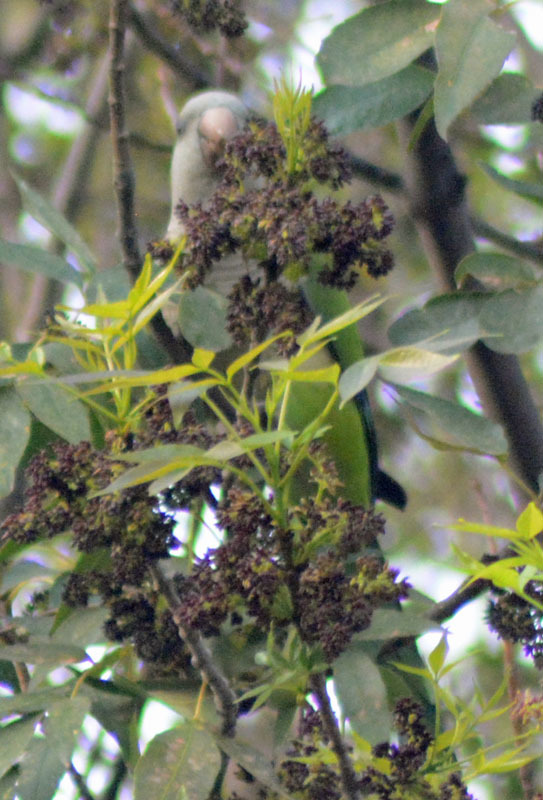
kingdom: Animalia
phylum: Chordata
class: Aves
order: Psittaciformes
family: Psittacidae
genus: Myiopsitta
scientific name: Myiopsitta monachus
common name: Monk parakeet
